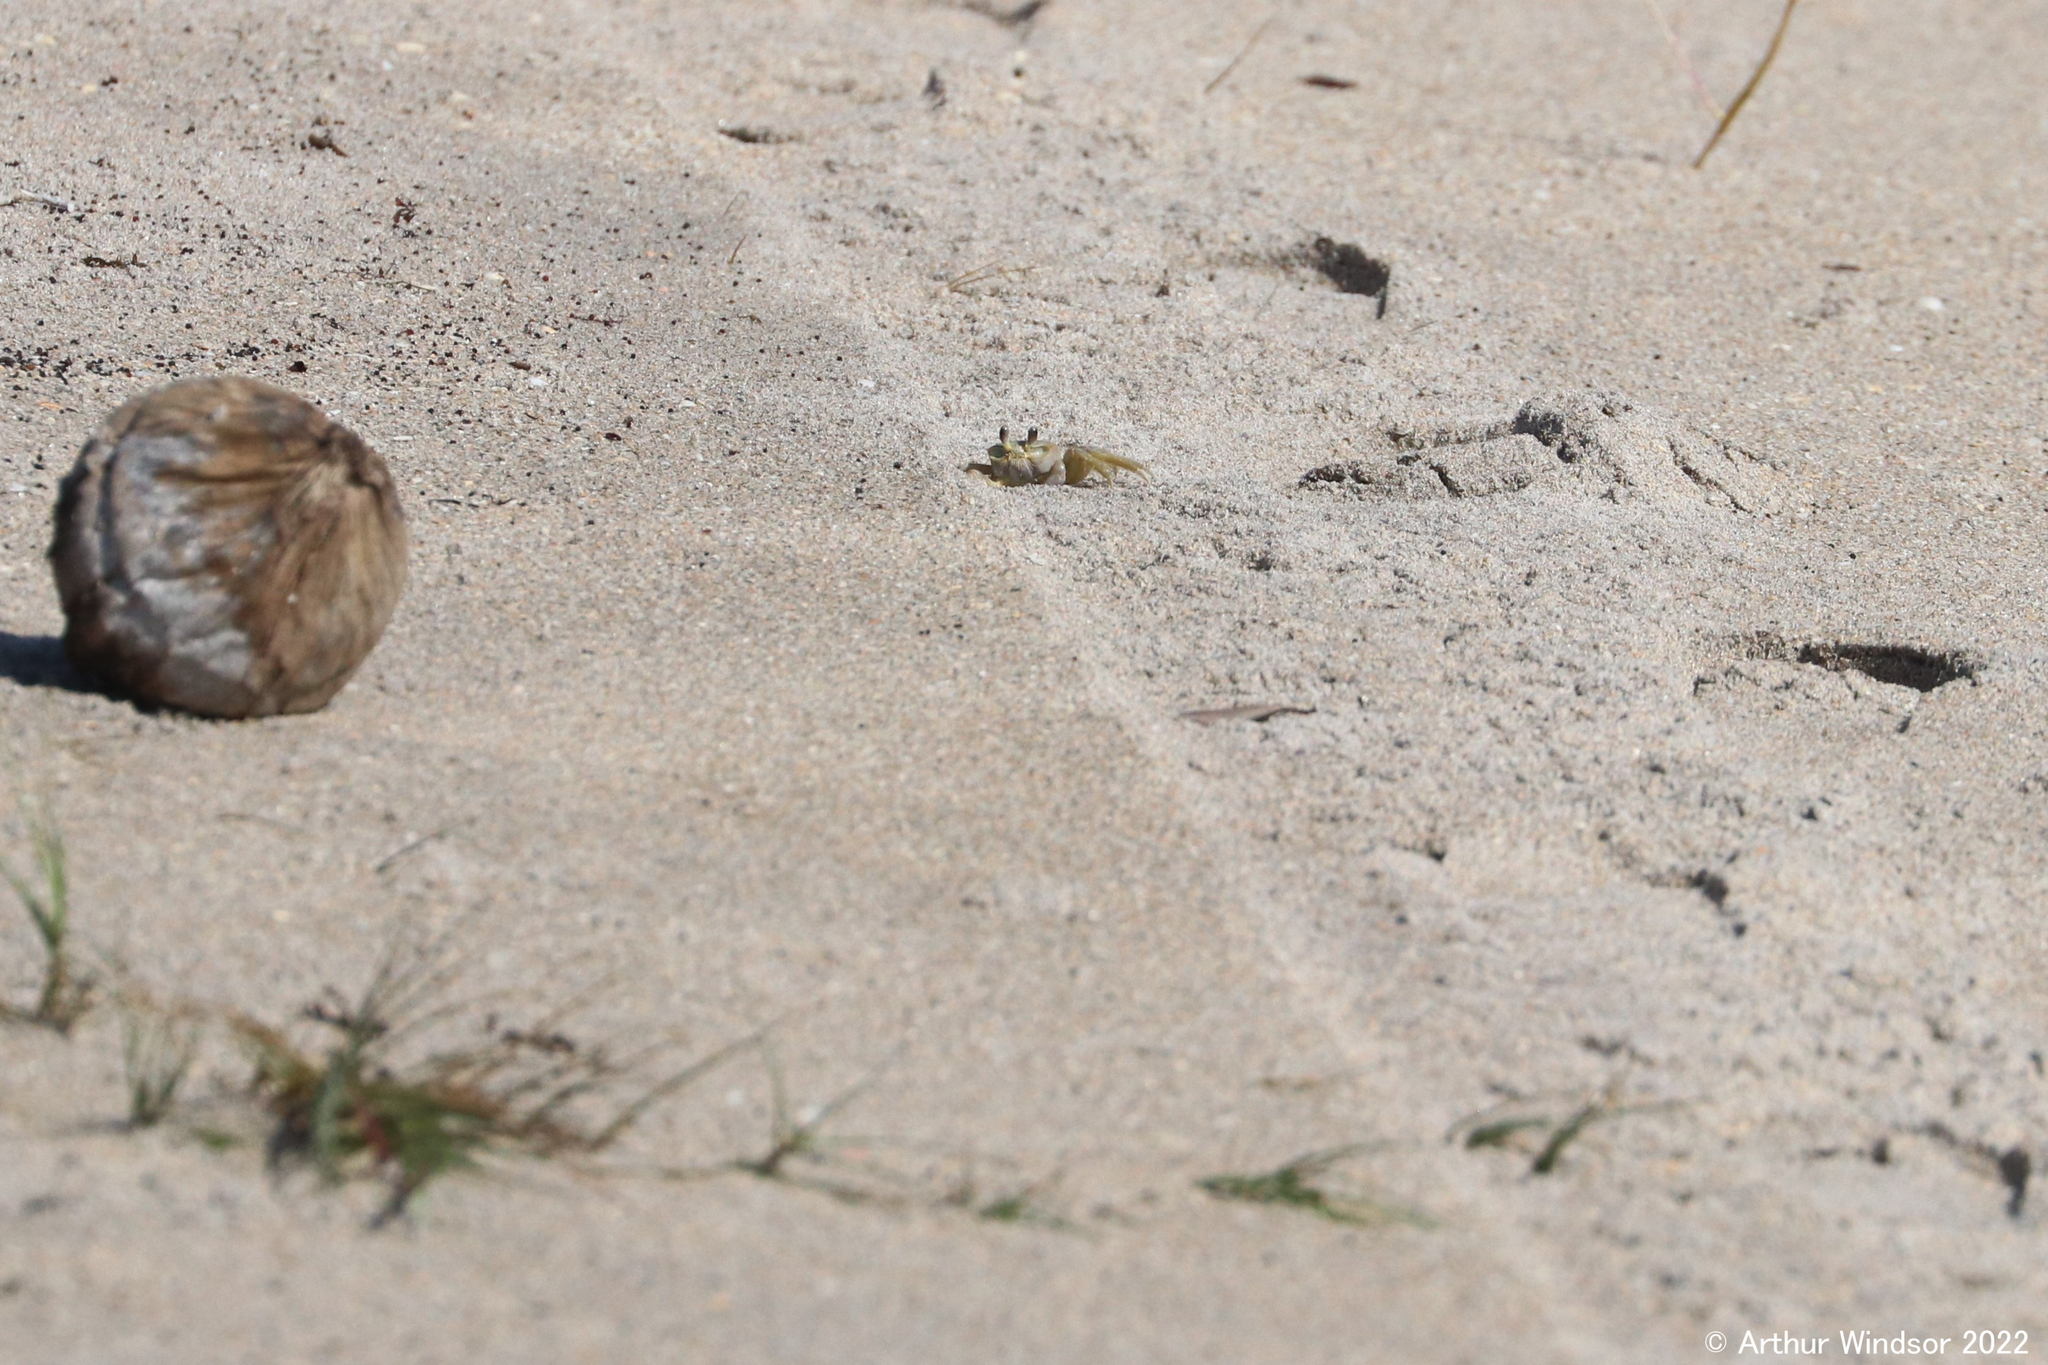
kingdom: Animalia
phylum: Arthropoda
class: Malacostraca
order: Decapoda
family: Ocypodidae
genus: Ocypode
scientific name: Ocypode quadrata
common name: Ghost crab
